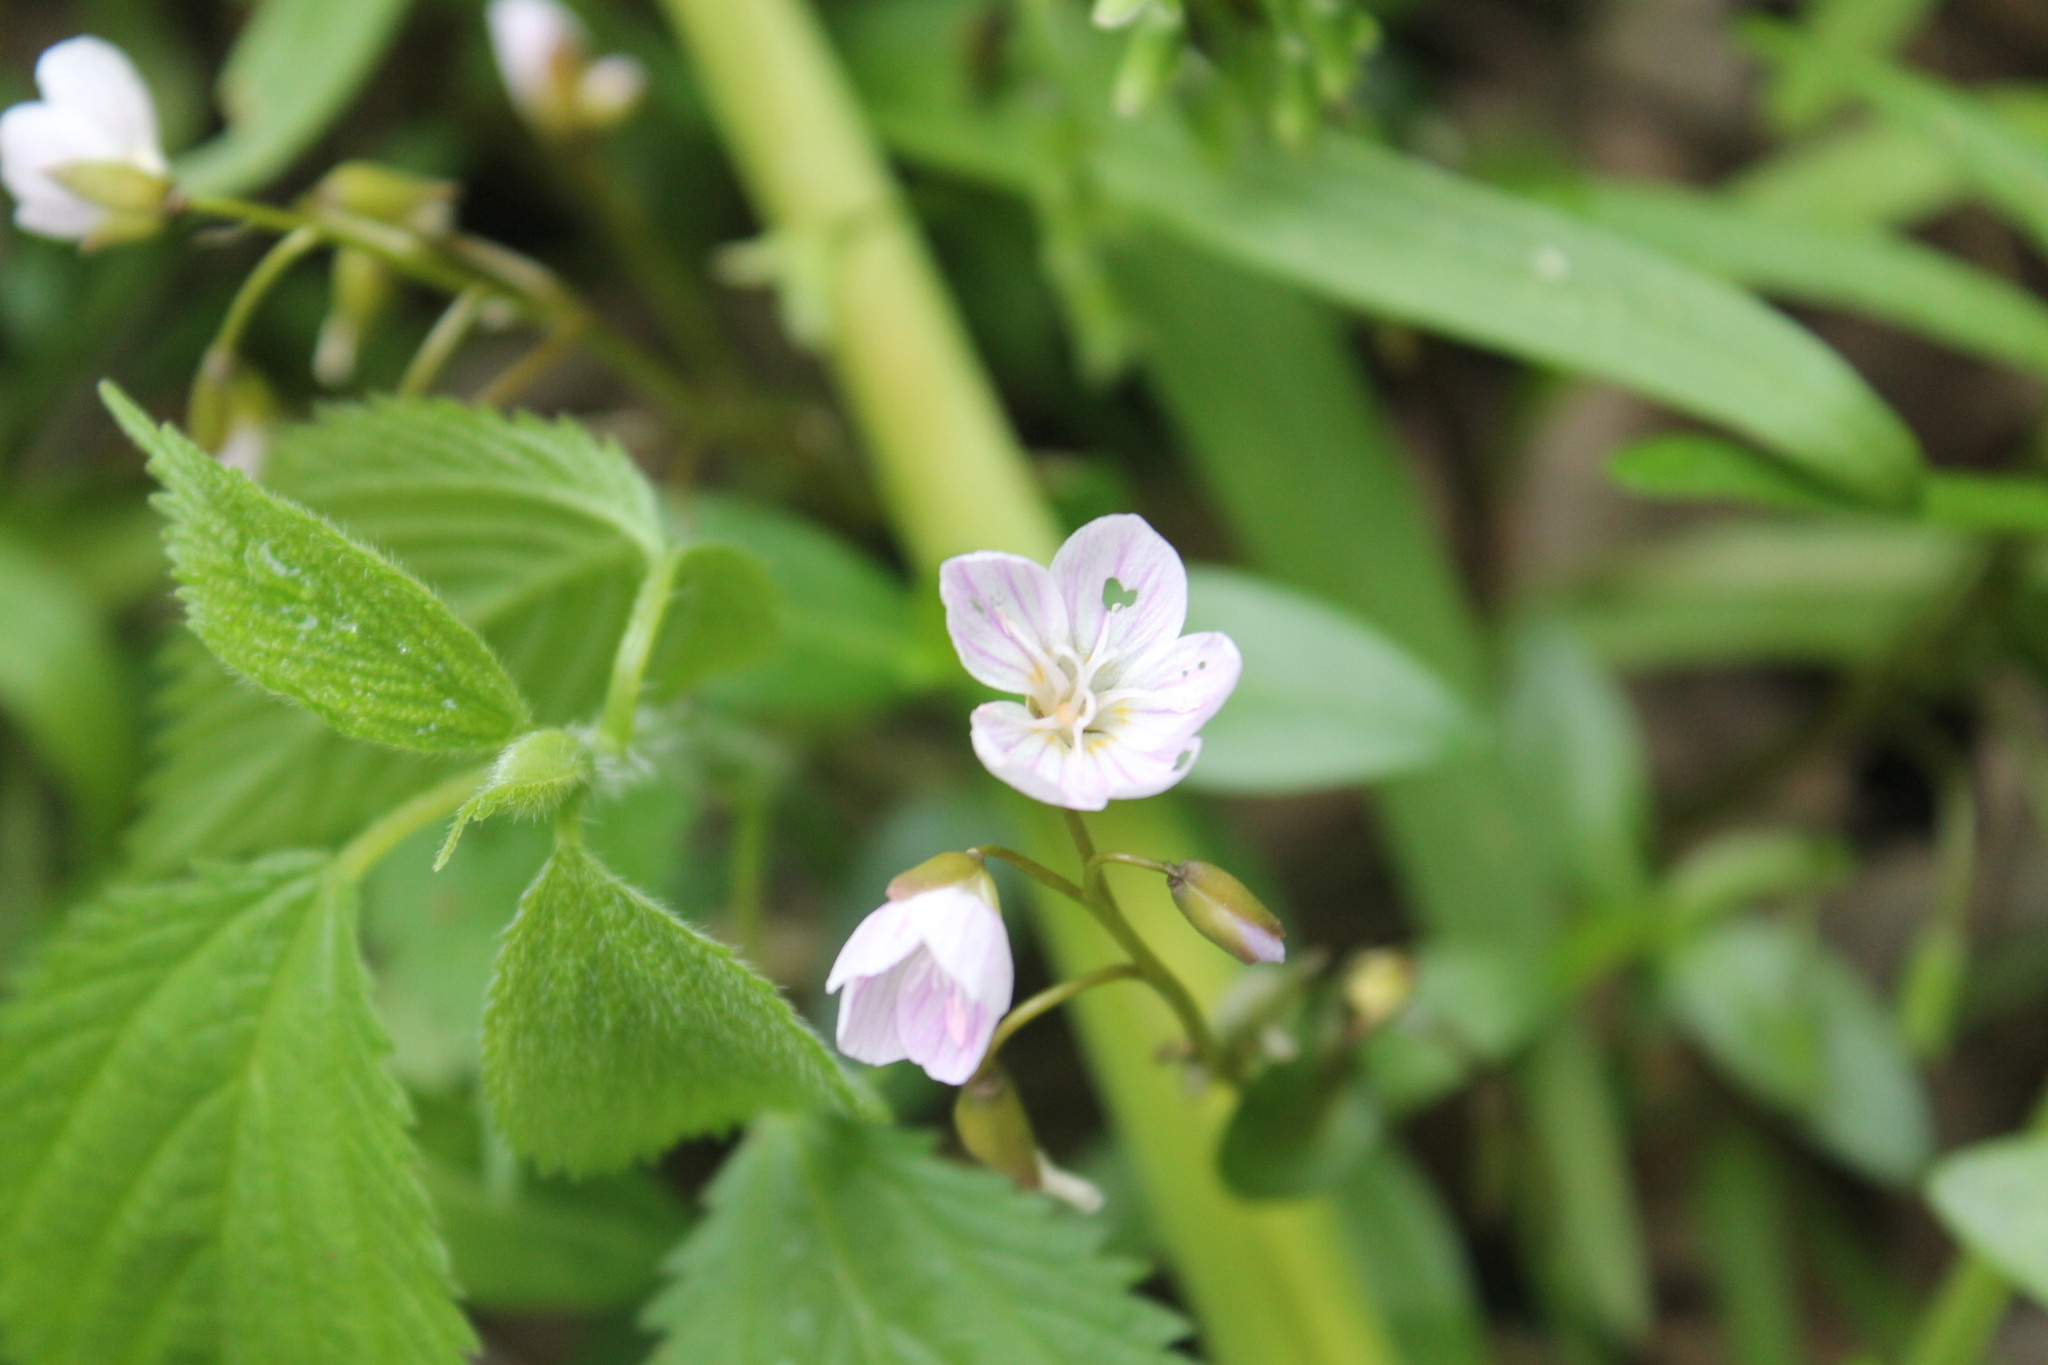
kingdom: Plantae
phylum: Tracheophyta
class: Magnoliopsida
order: Caryophyllales
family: Montiaceae
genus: Claytonia
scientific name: Claytonia virginica
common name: Virginia springbeauty
